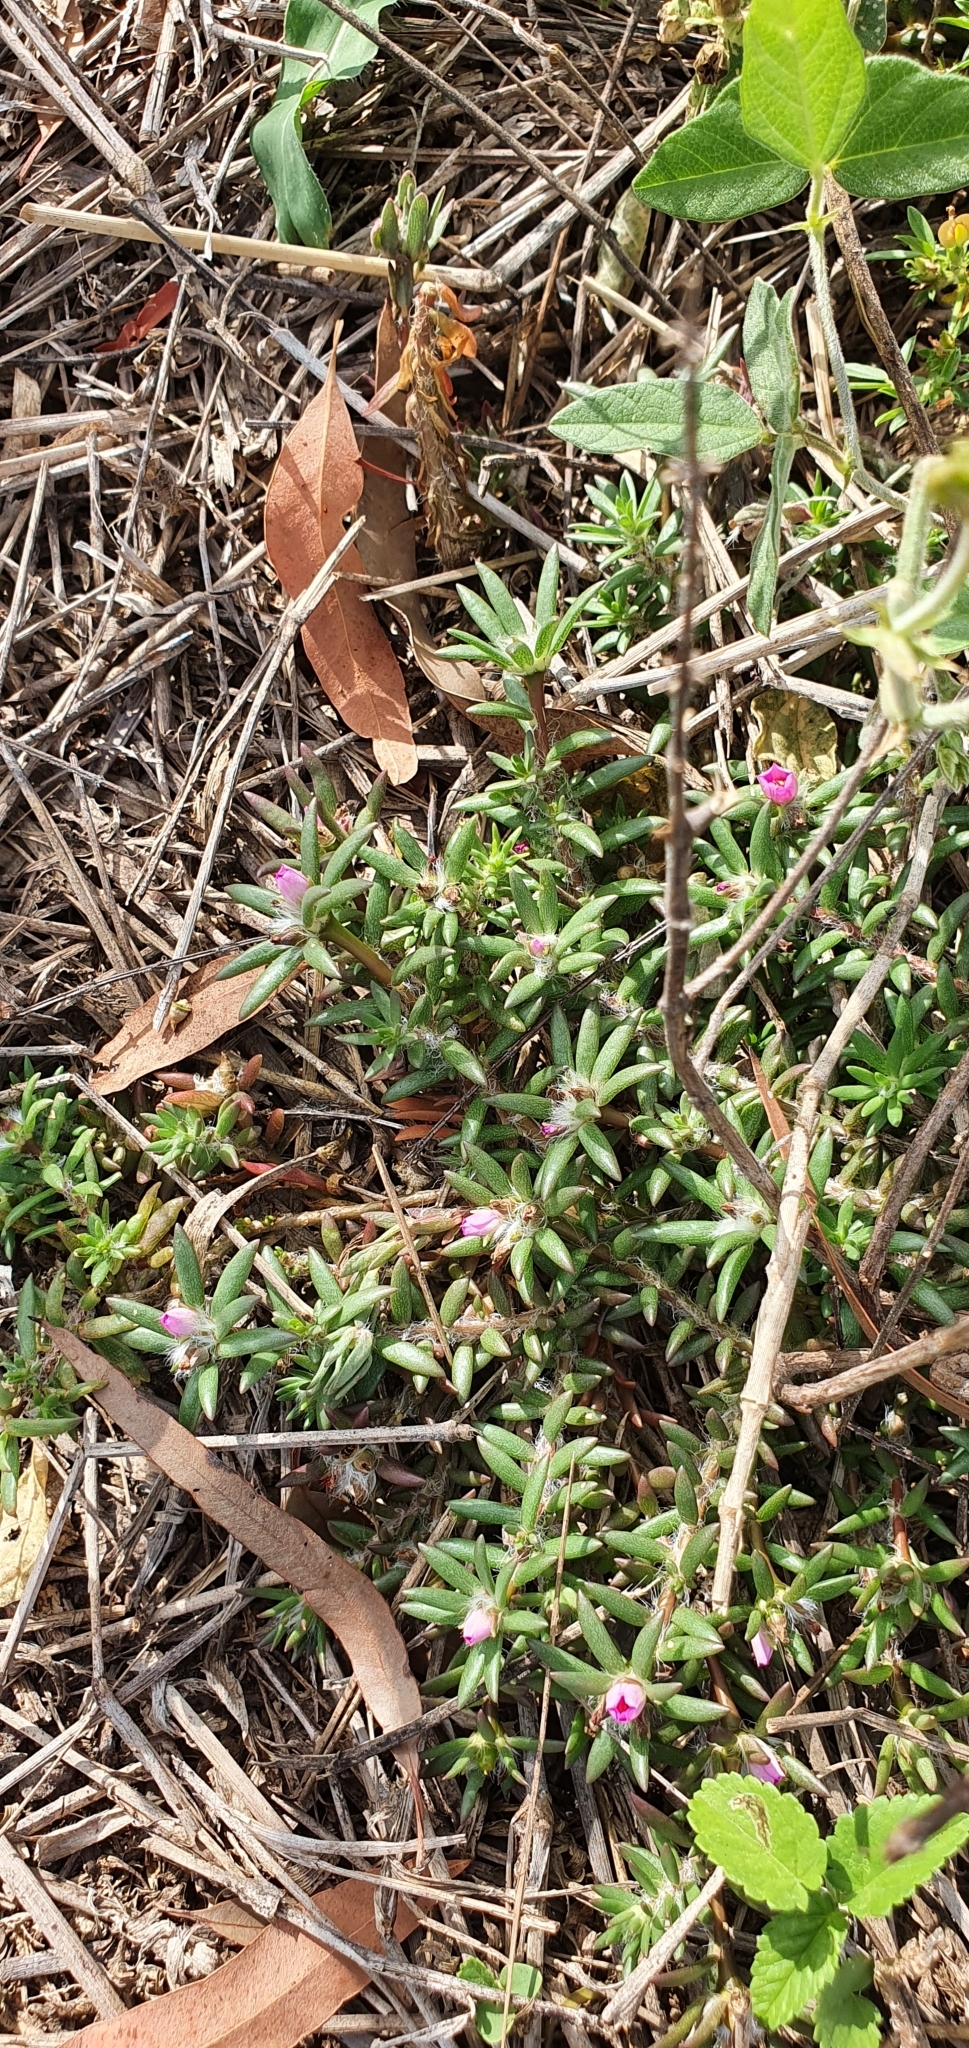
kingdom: Plantae
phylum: Tracheophyta
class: Magnoliopsida
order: Caryophyllales
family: Portulacaceae
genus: Portulaca
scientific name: Portulaca pilosa
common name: Kiss me quick
